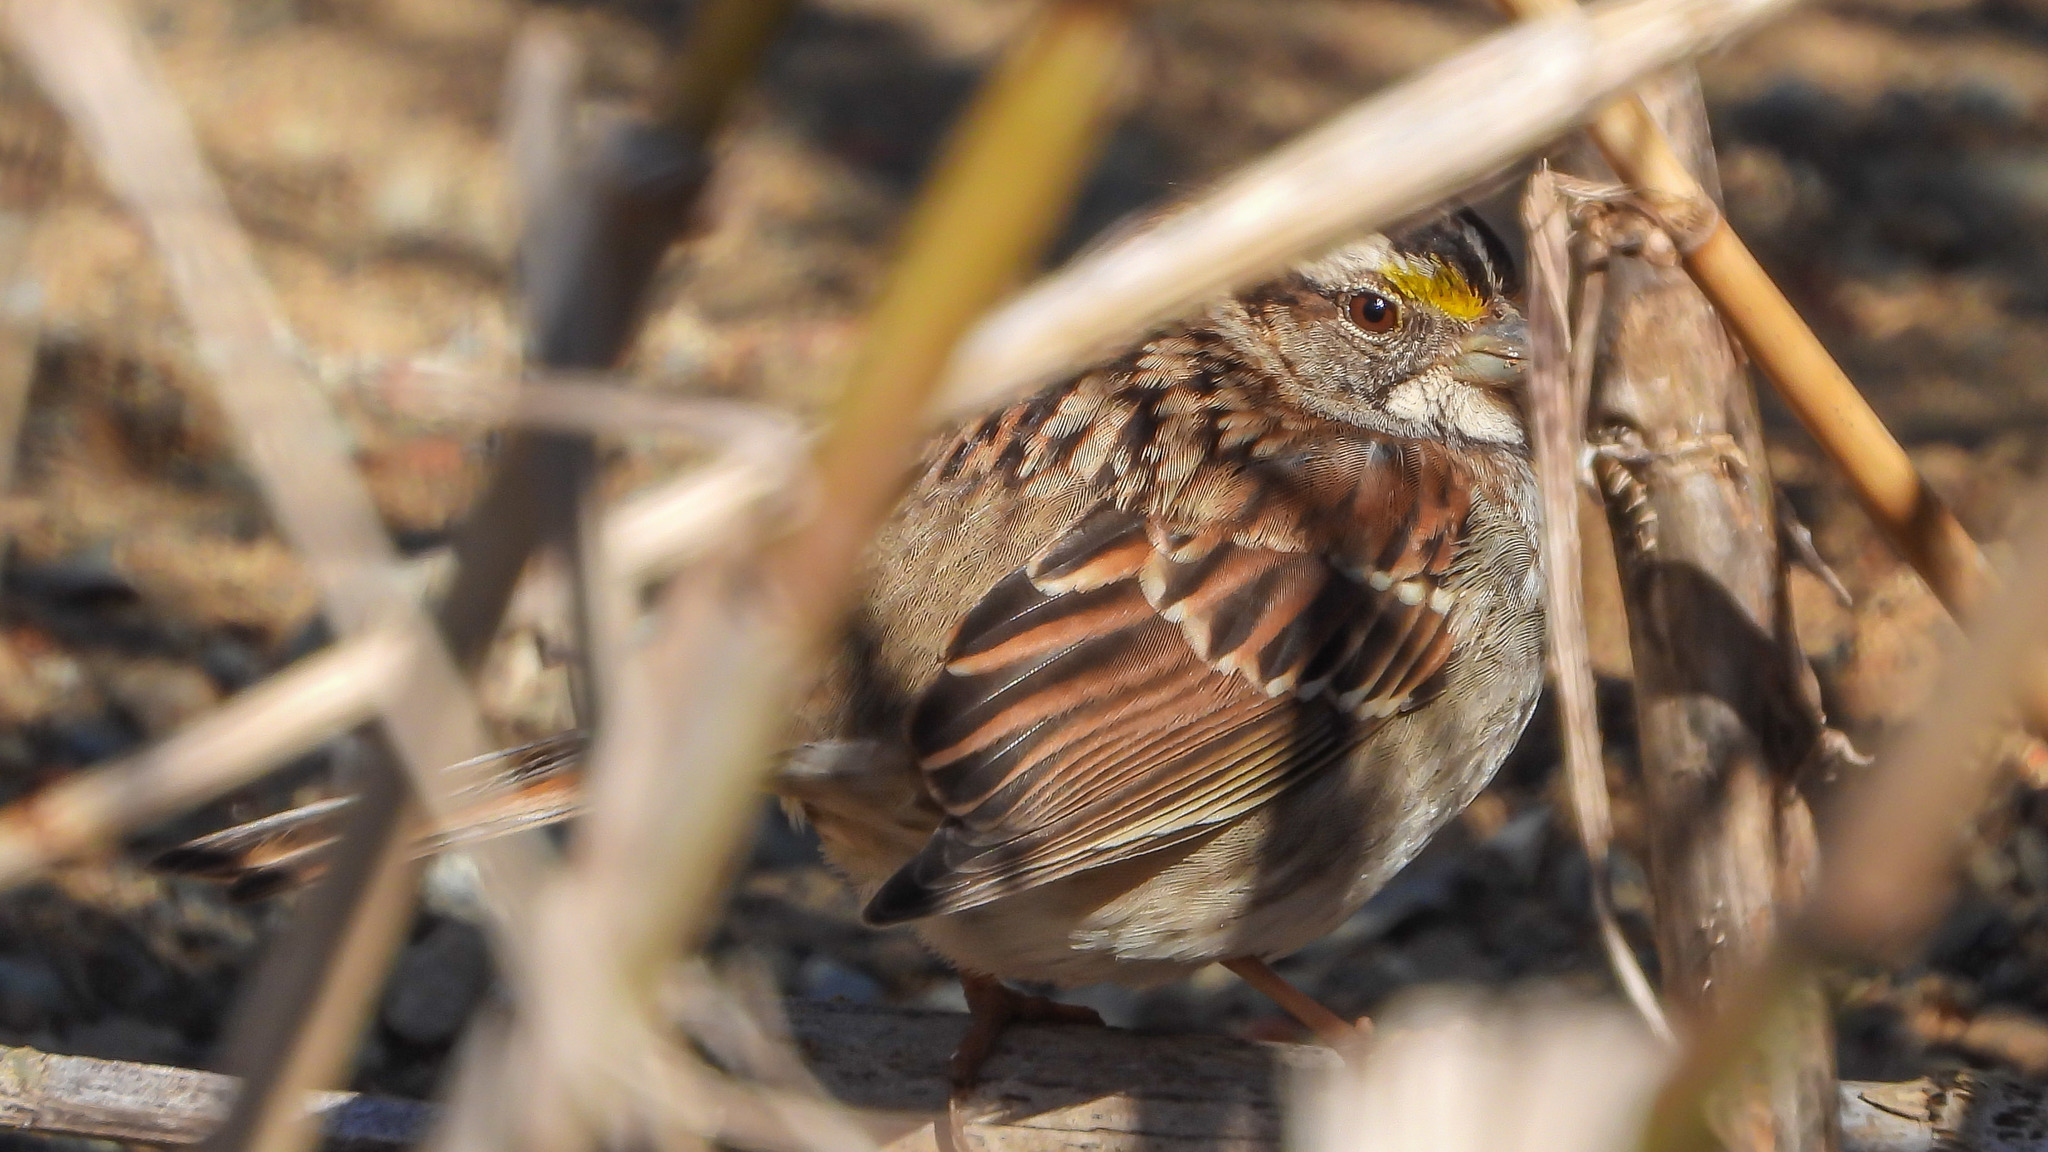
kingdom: Animalia
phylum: Chordata
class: Aves
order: Passeriformes
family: Passerellidae
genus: Zonotrichia
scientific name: Zonotrichia albicollis
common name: White-throated sparrow
